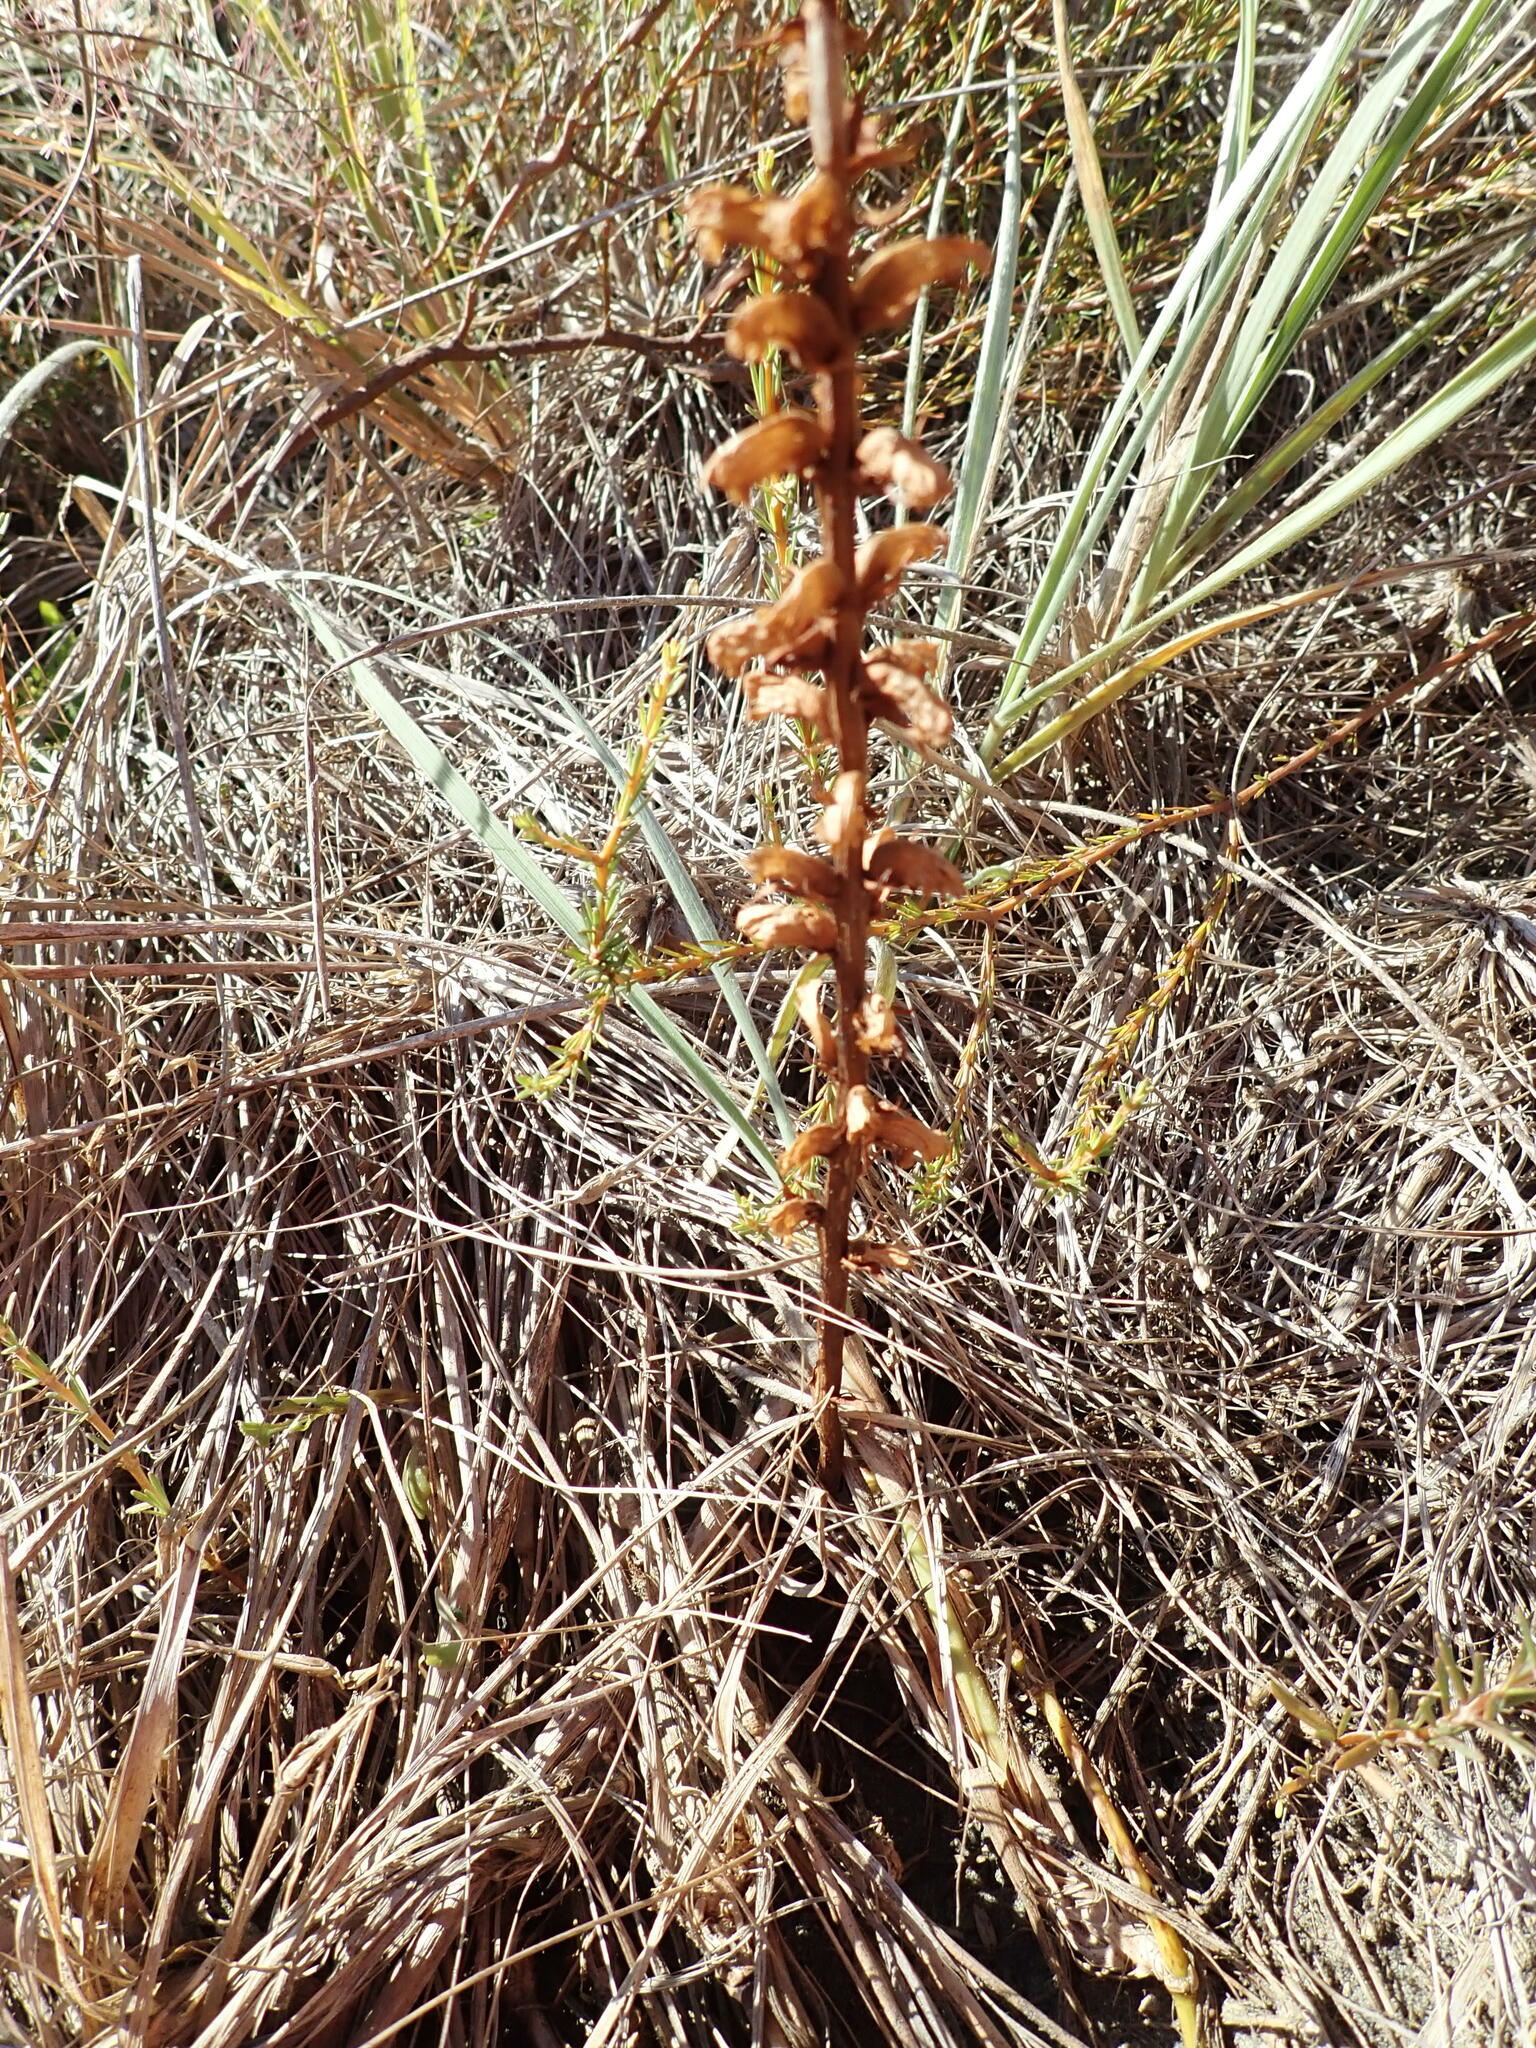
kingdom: Plantae
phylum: Tracheophyta
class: Magnoliopsida
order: Lamiales
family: Orobanchaceae
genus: Orobanche
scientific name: Orobanche minor
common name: Common broomrape
